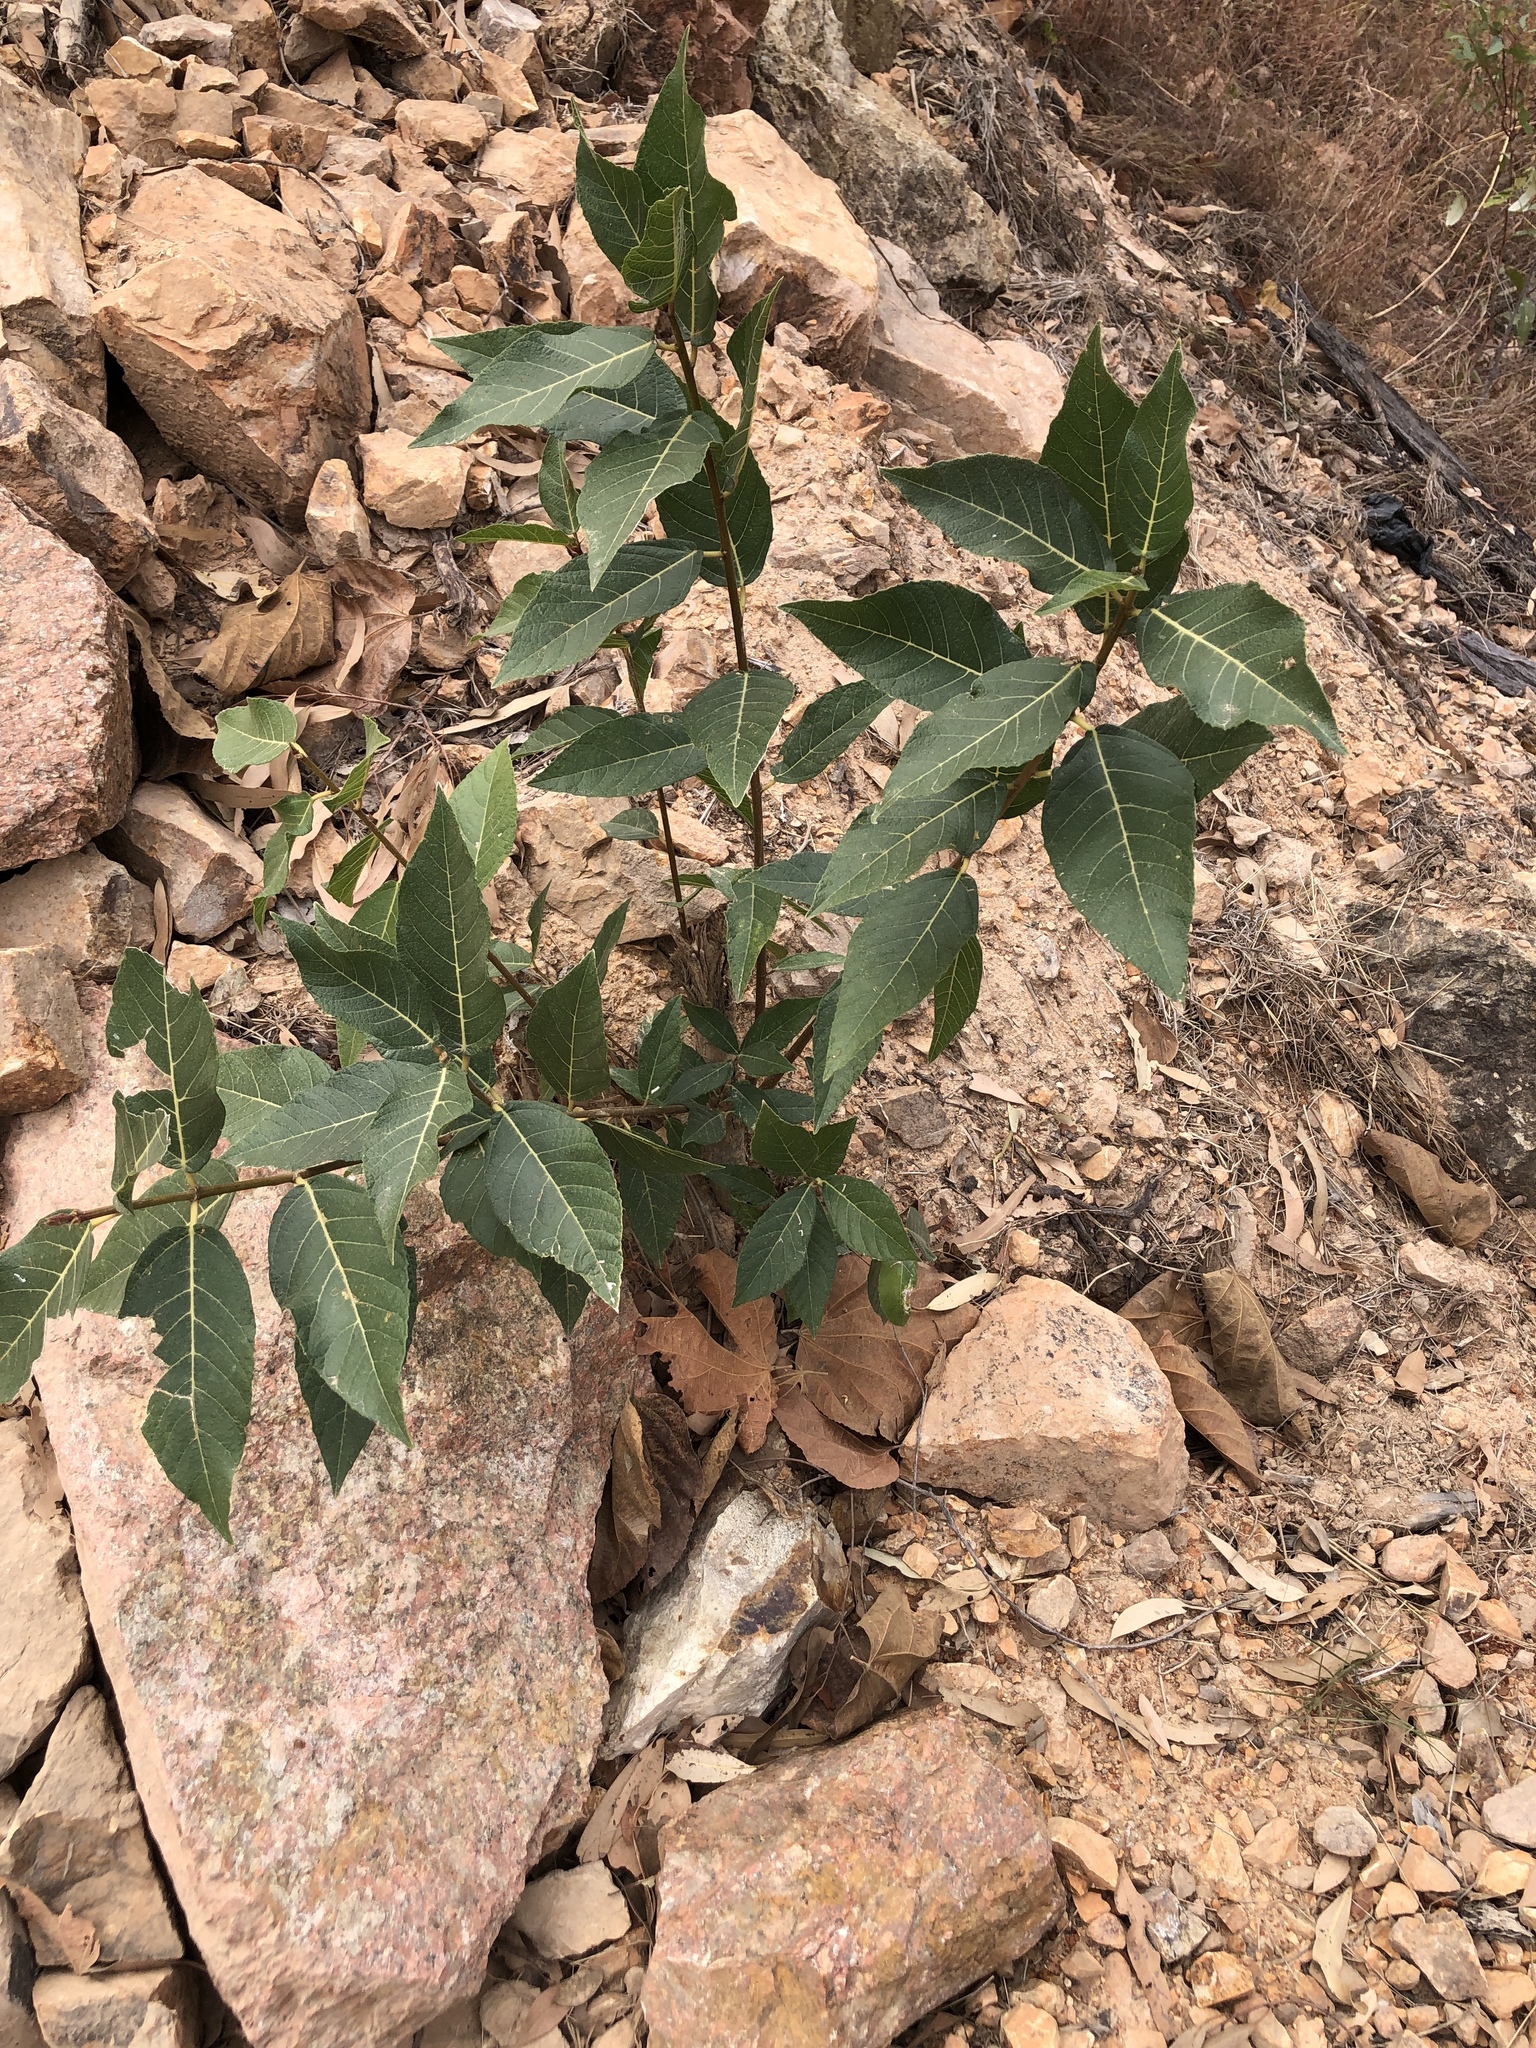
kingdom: Plantae
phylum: Tracheophyta
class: Magnoliopsida
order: Rosales
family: Moraceae
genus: Ficus
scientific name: Ficus opposita
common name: Figwood
